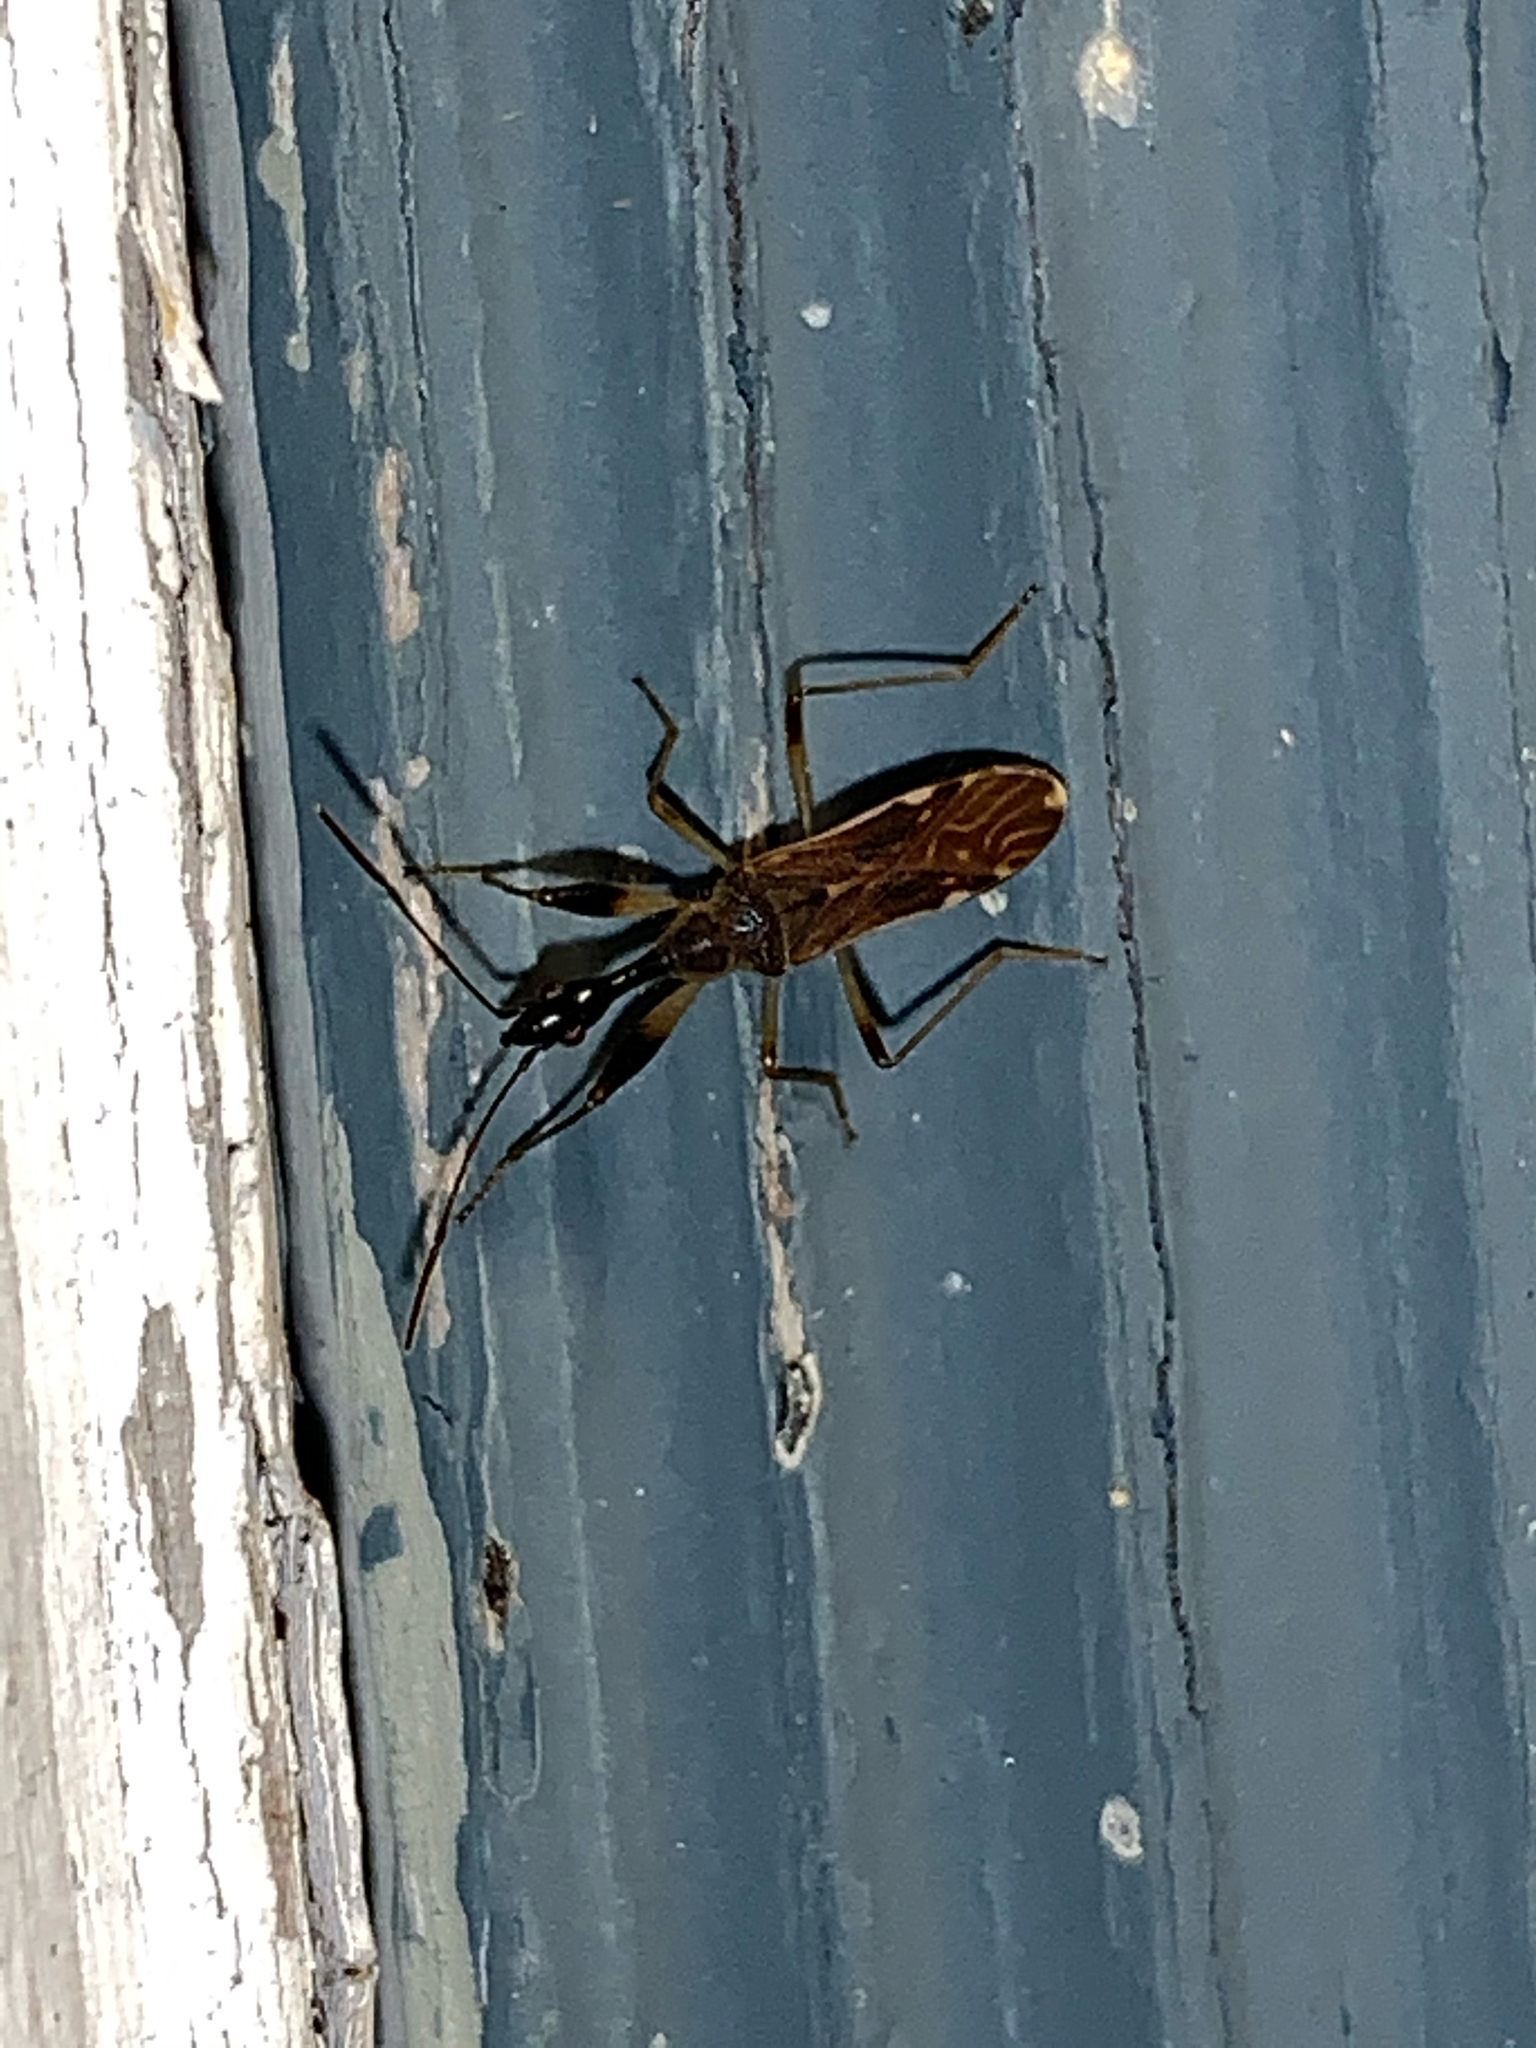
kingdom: Animalia
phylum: Arthropoda
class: Insecta
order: Hemiptera
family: Rhyparochromidae
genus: Myodocha
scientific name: Myodocha serripes
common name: Long-necked seed bug
